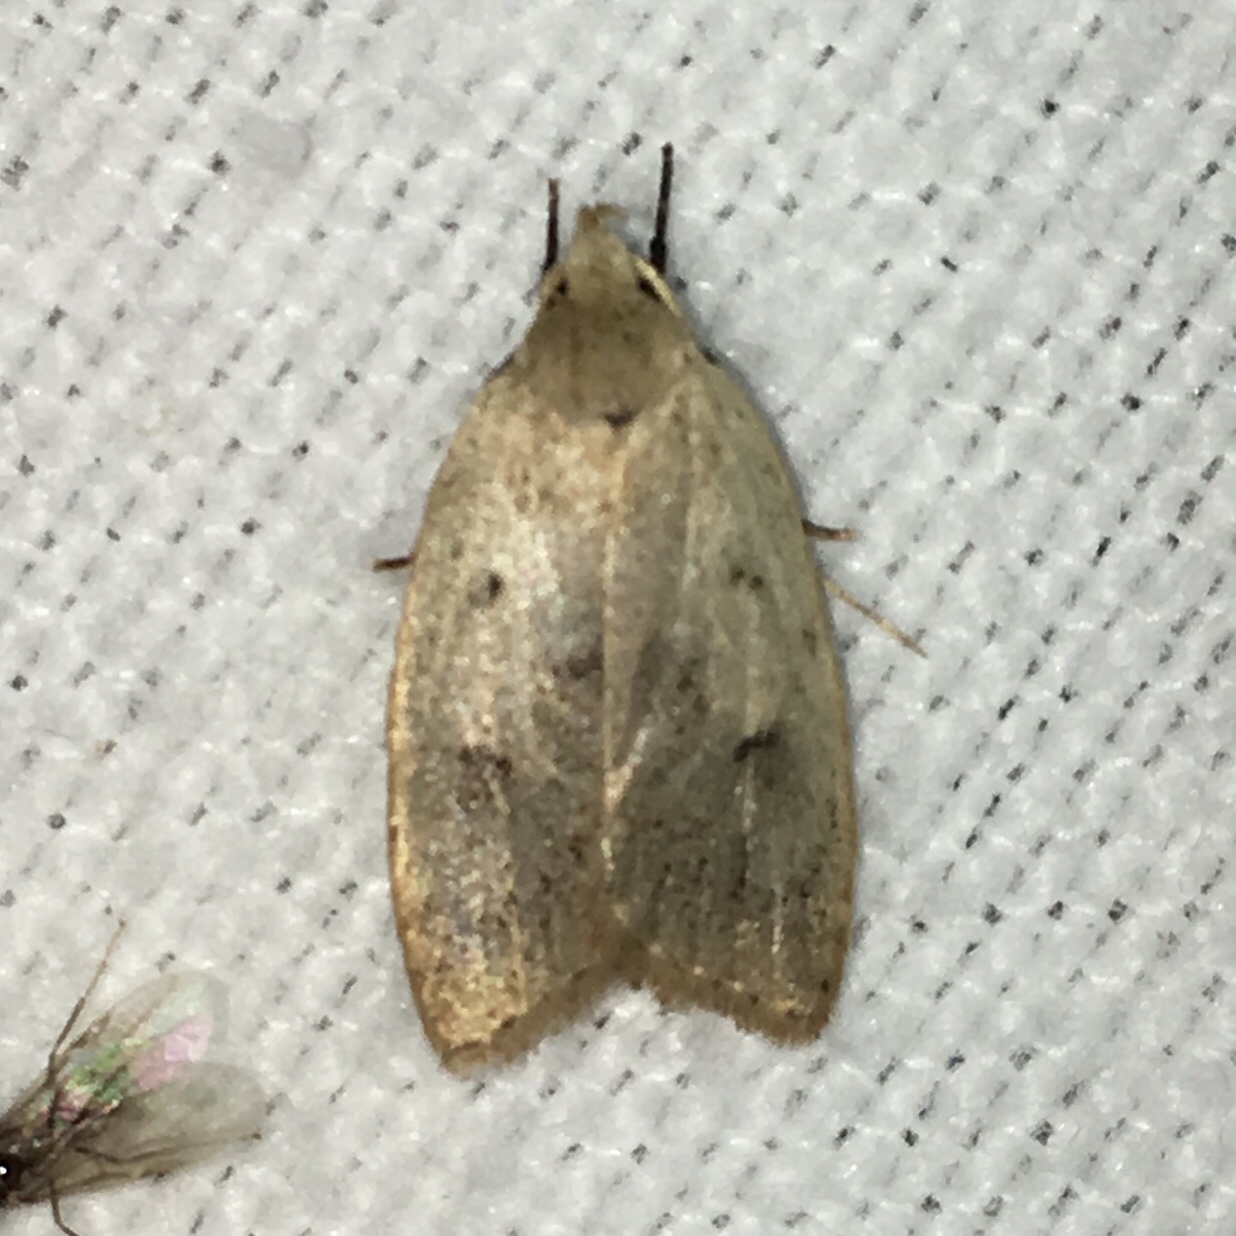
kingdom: Animalia
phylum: Arthropoda
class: Insecta
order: Lepidoptera
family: Peleopodidae
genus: Machimia
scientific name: Machimia tentoriferella
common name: Gold-striped leaftier moth
